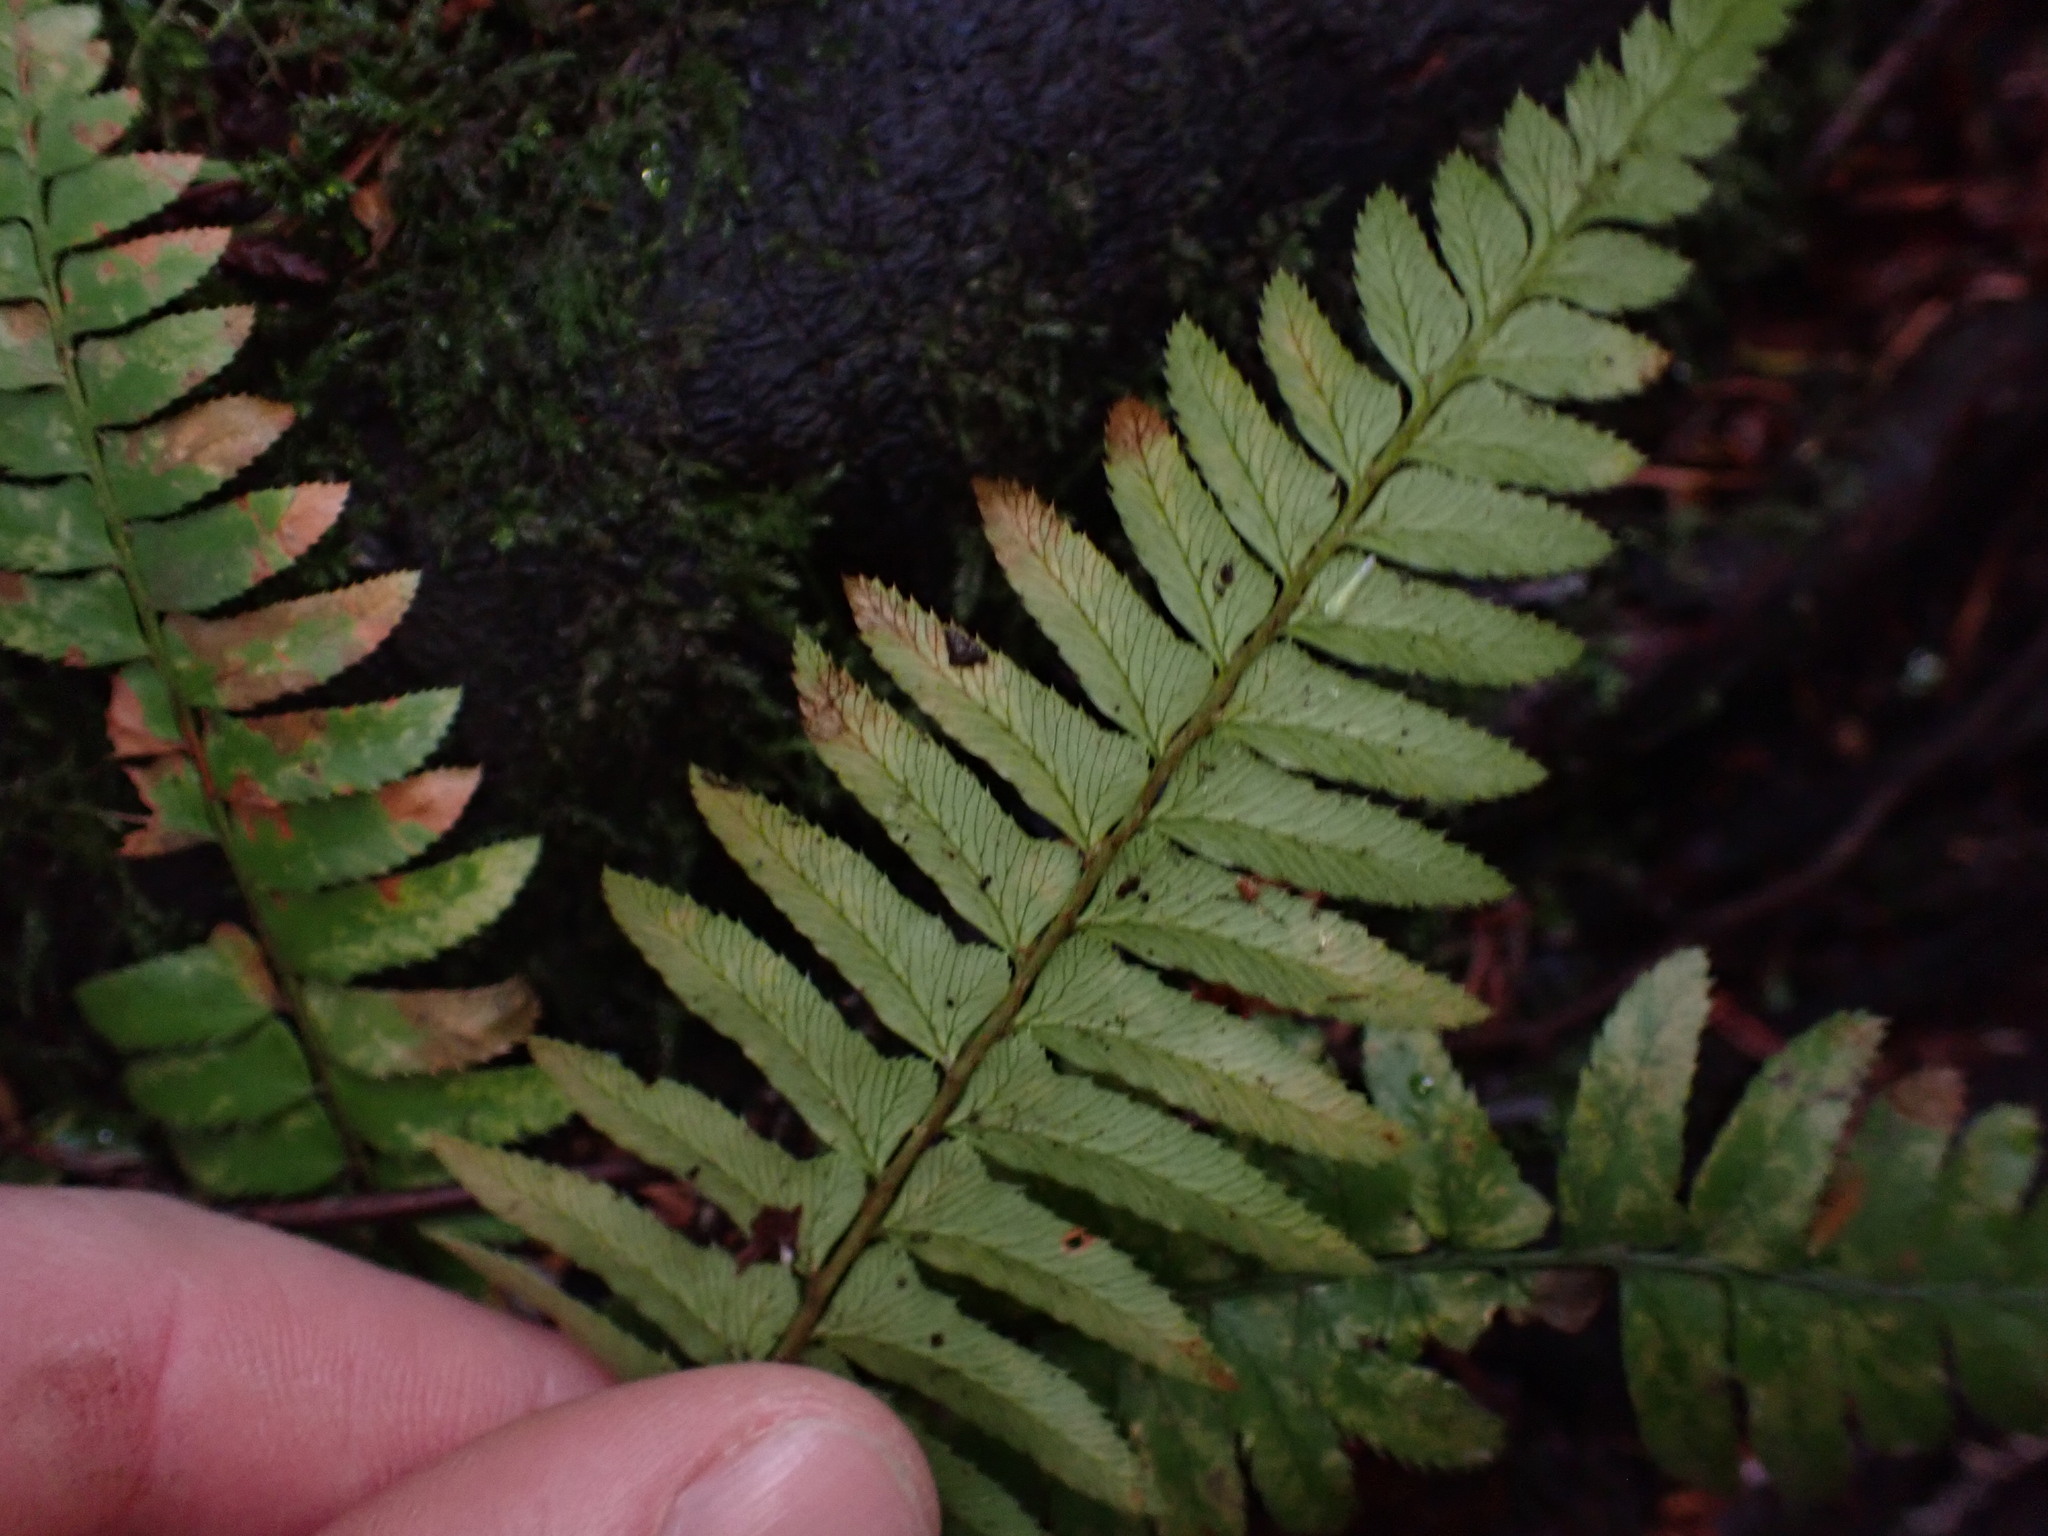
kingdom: Plantae
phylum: Tracheophyta
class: Polypodiopsida
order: Polypodiales
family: Dryopteridaceae
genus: Polystichum
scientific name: Polystichum munitum
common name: Western sword-fern
